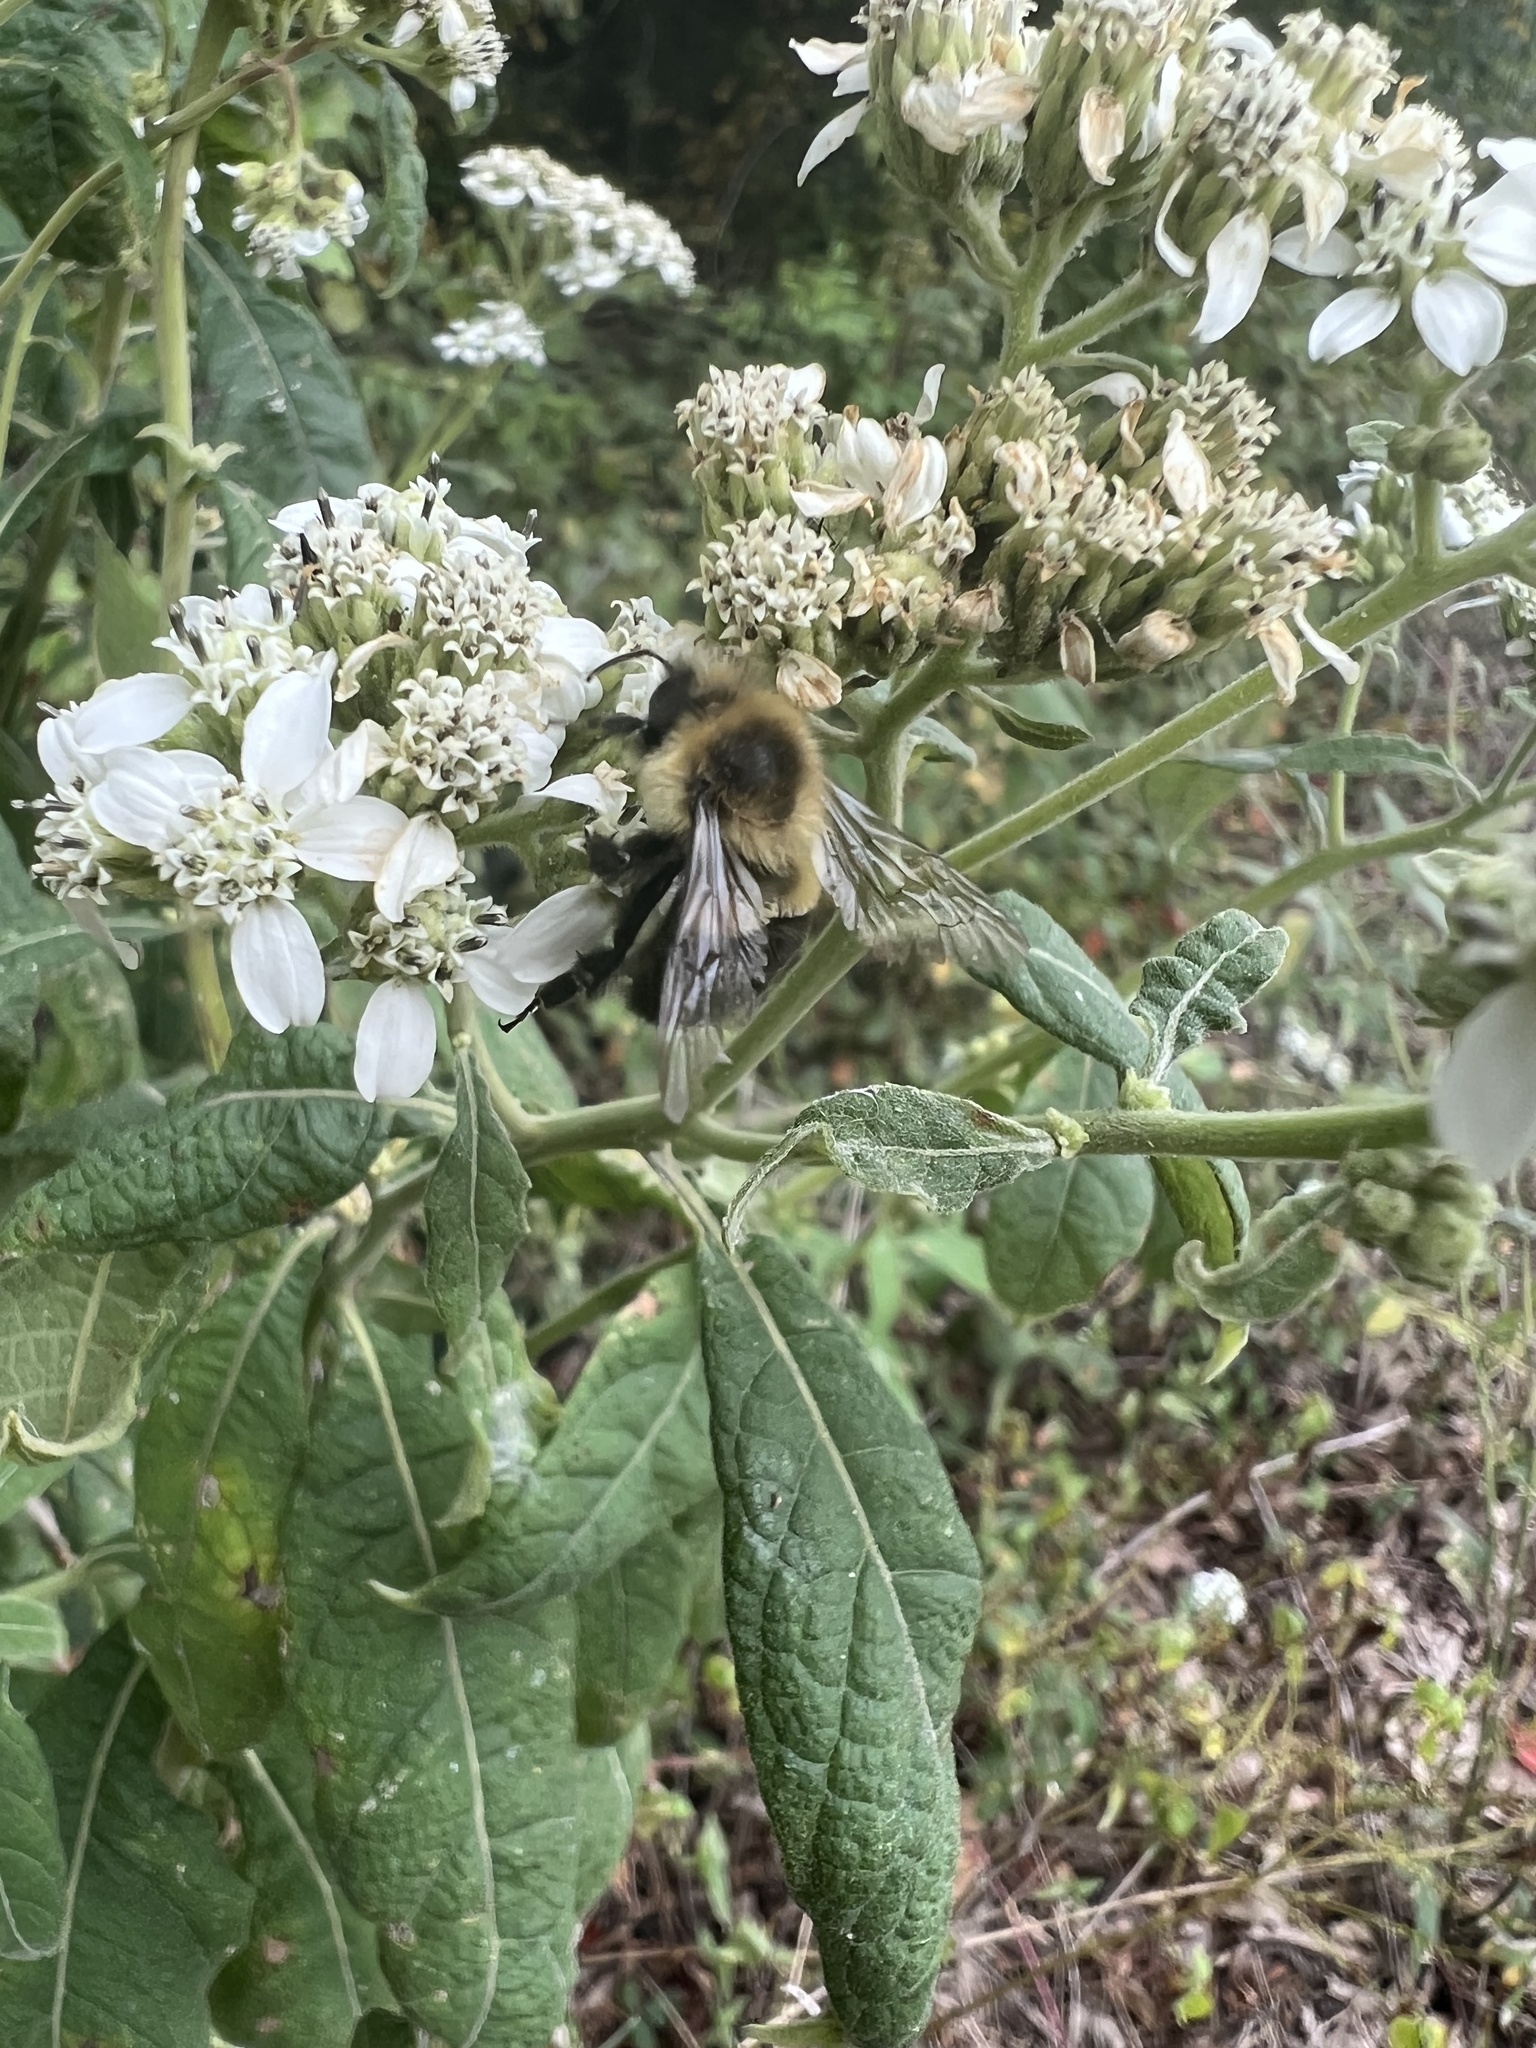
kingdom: Animalia
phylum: Arthropoda
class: Insecta
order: Hymenoptera
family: Apidae
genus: Bombus
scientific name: Bombus impatiens
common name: Common eastern bumble bee
